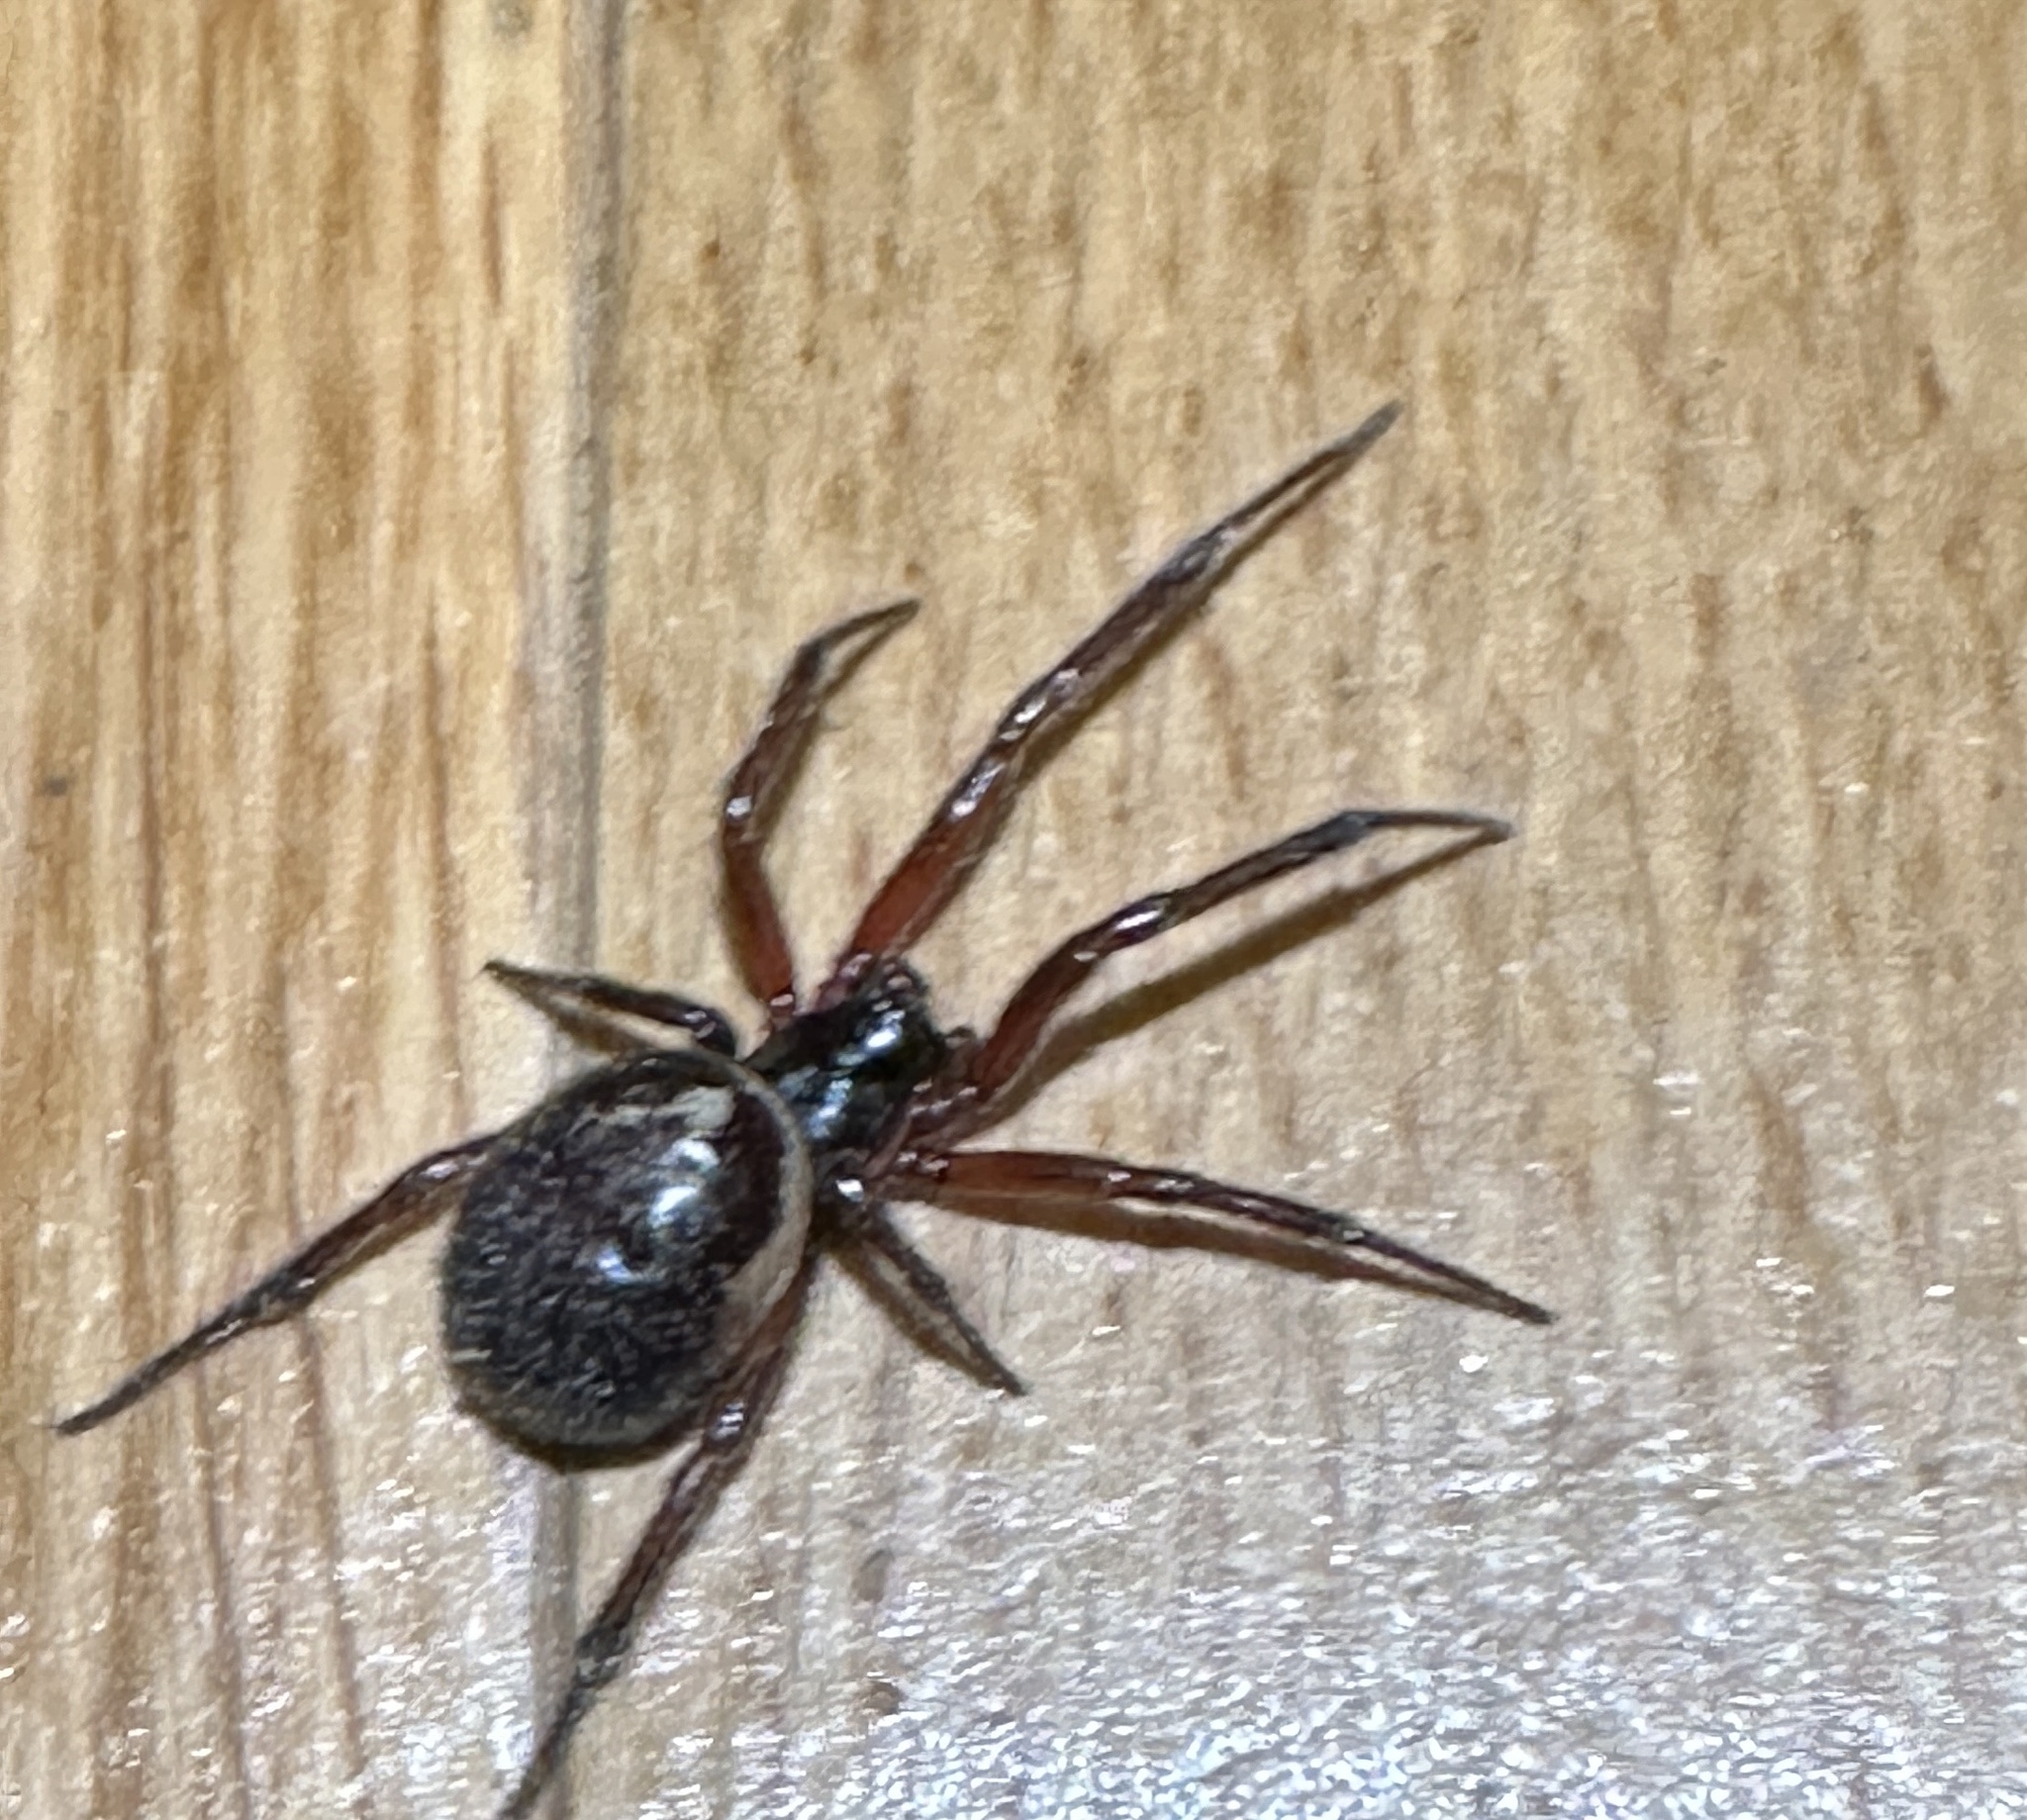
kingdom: Animalia
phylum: Arthropoda
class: Arachnida
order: Araneae
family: Theridiidae
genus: Steatoda
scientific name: Steatoda nobilis
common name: Cobweb weaver
